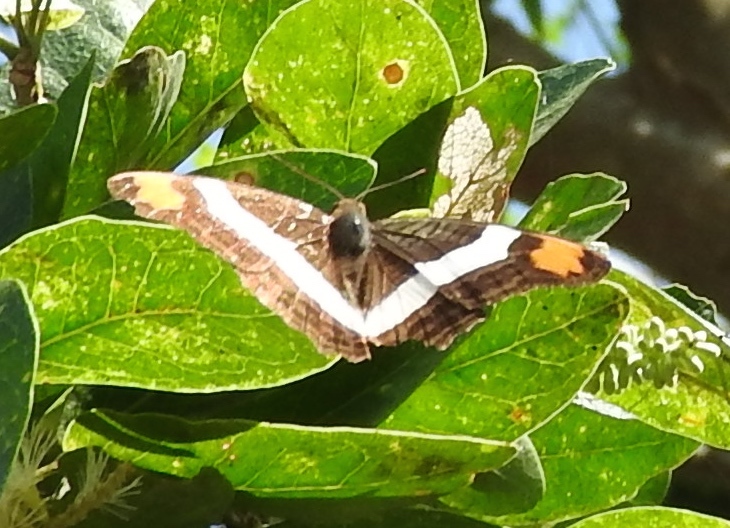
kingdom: Animalia
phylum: Arthropoda
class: Insecta
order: Lepidoptera
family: Nymphalidae
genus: Limenitis
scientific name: Limenitis fessonia
